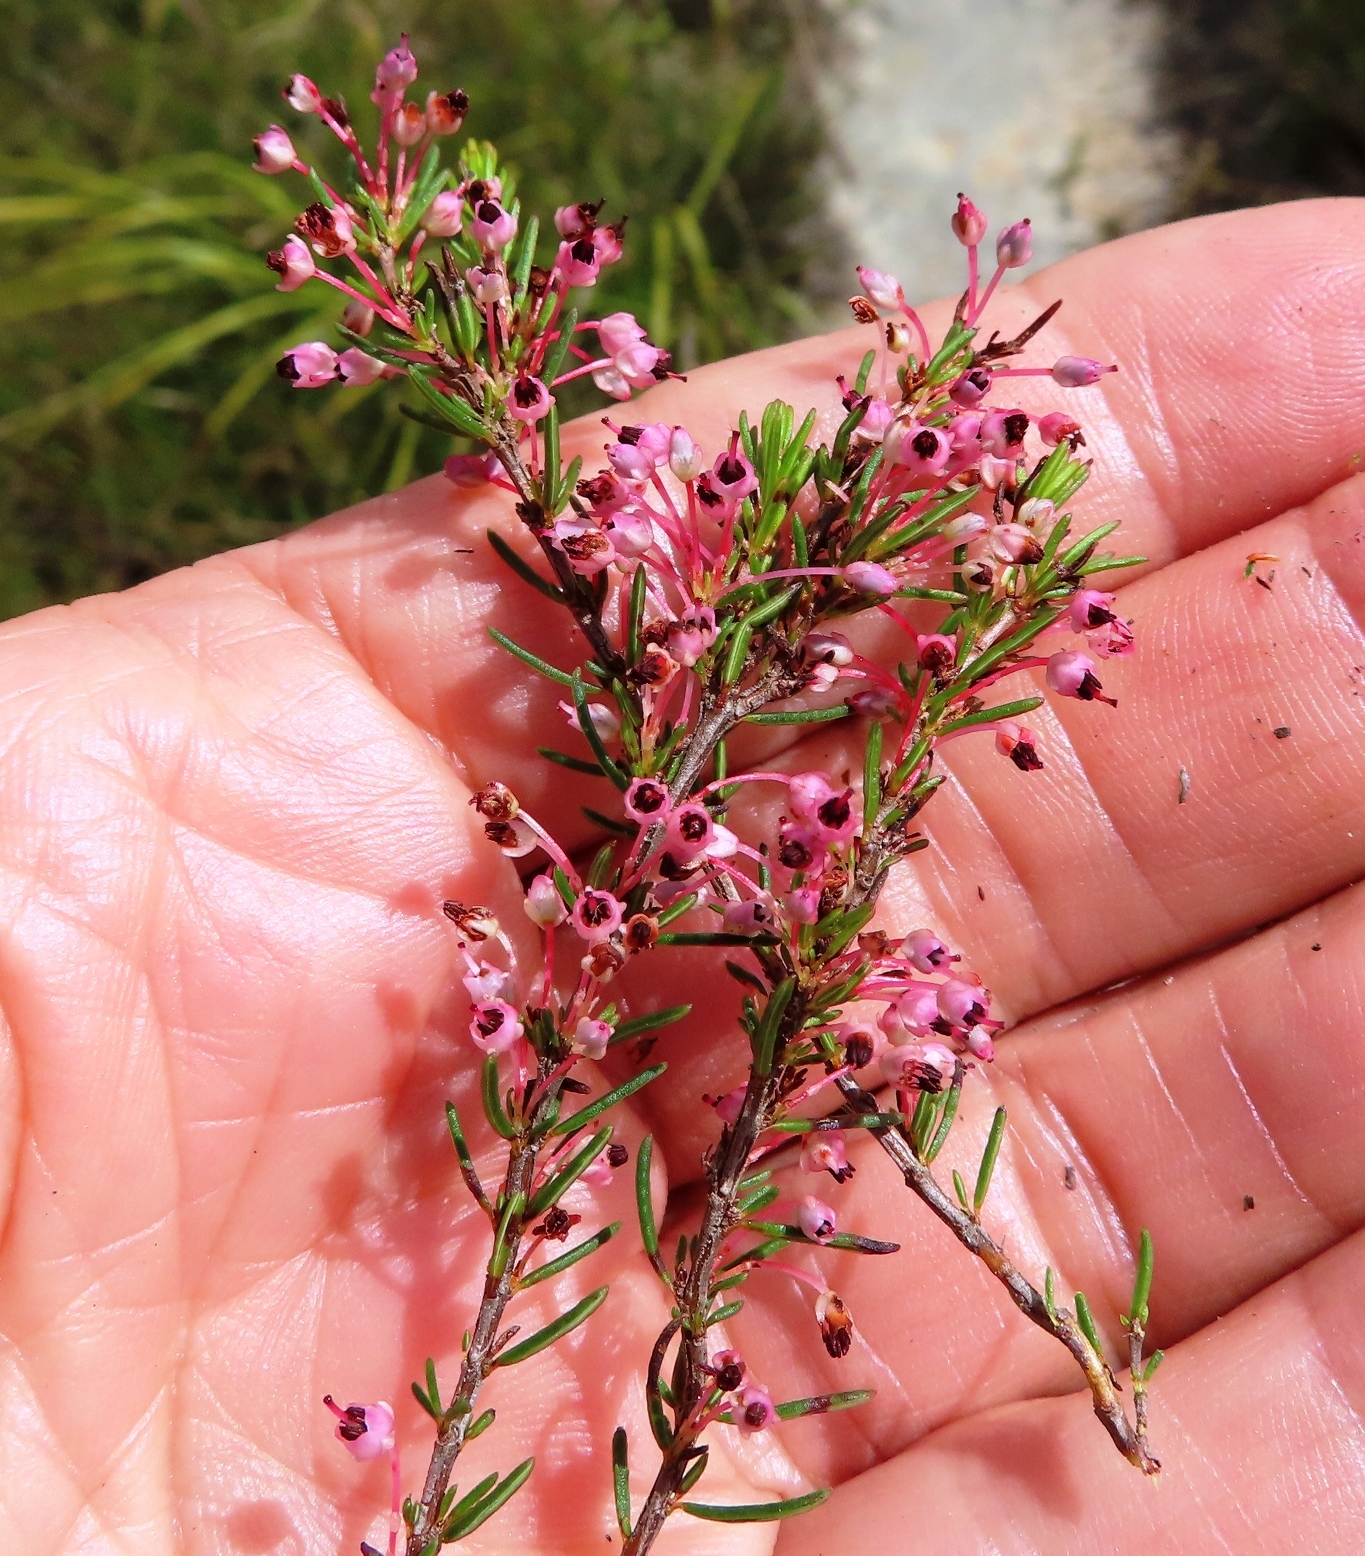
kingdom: Plantae
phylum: Tracheophyta
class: Magnoliopsida
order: Ericales
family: Ericaceae
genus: Erica
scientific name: Erica rubiginosa
